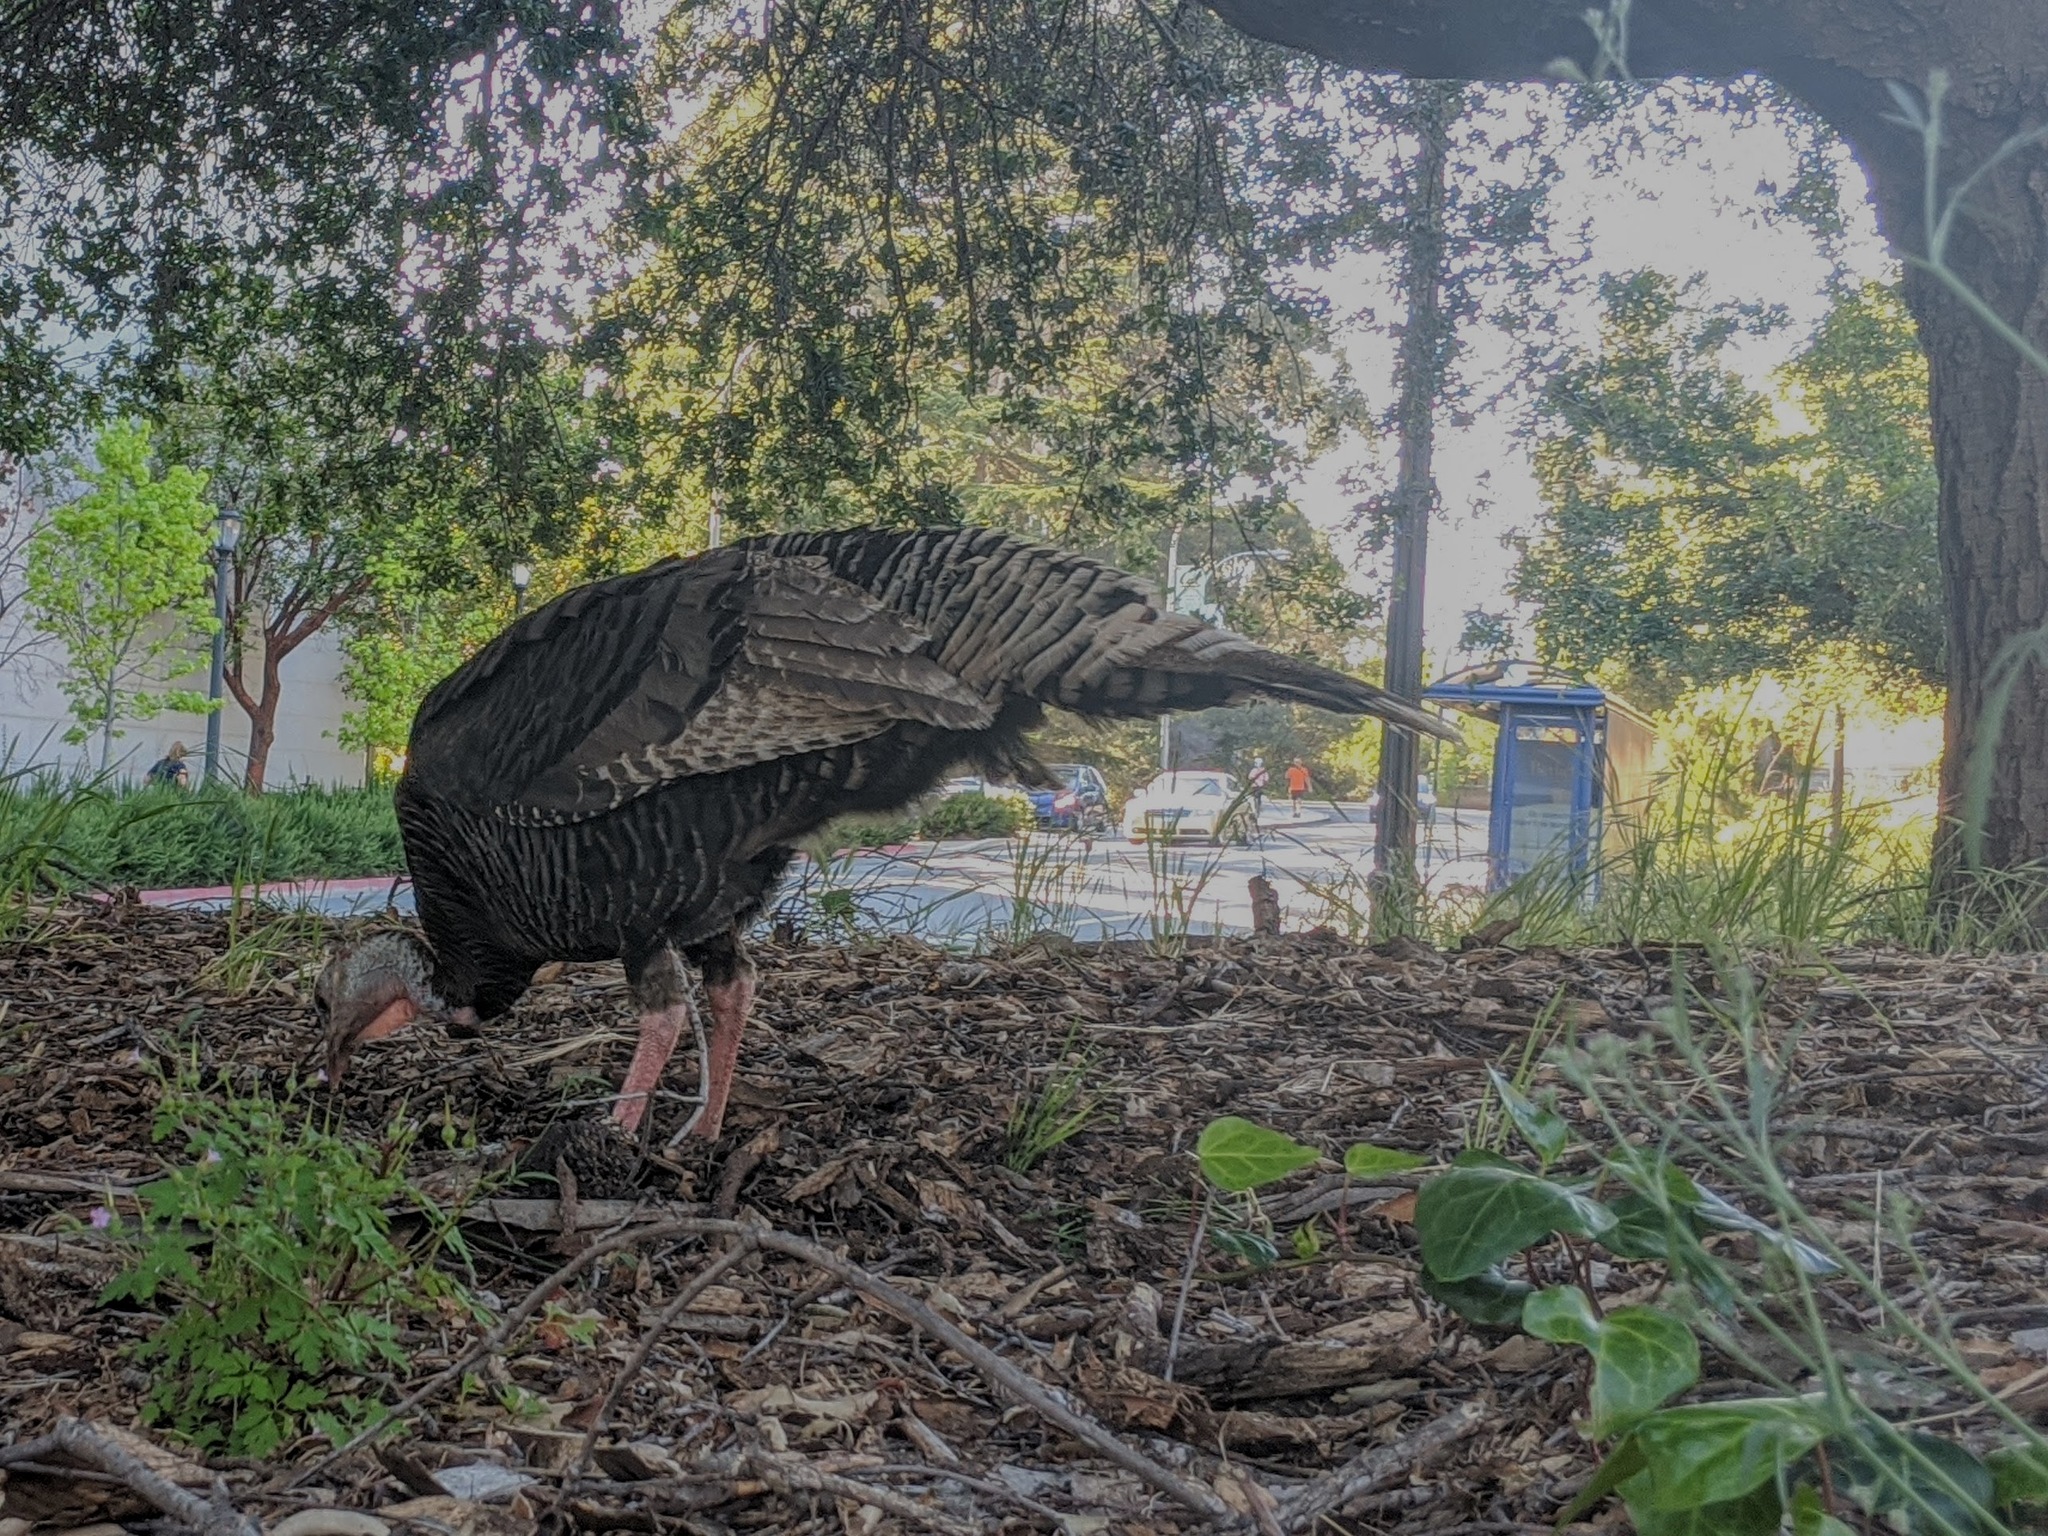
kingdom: Animalia
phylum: Chordata
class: Aves
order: Galliformes
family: Phasianidae
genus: Meleagris
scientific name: Meleagris gallopavo
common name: Wild turkey
